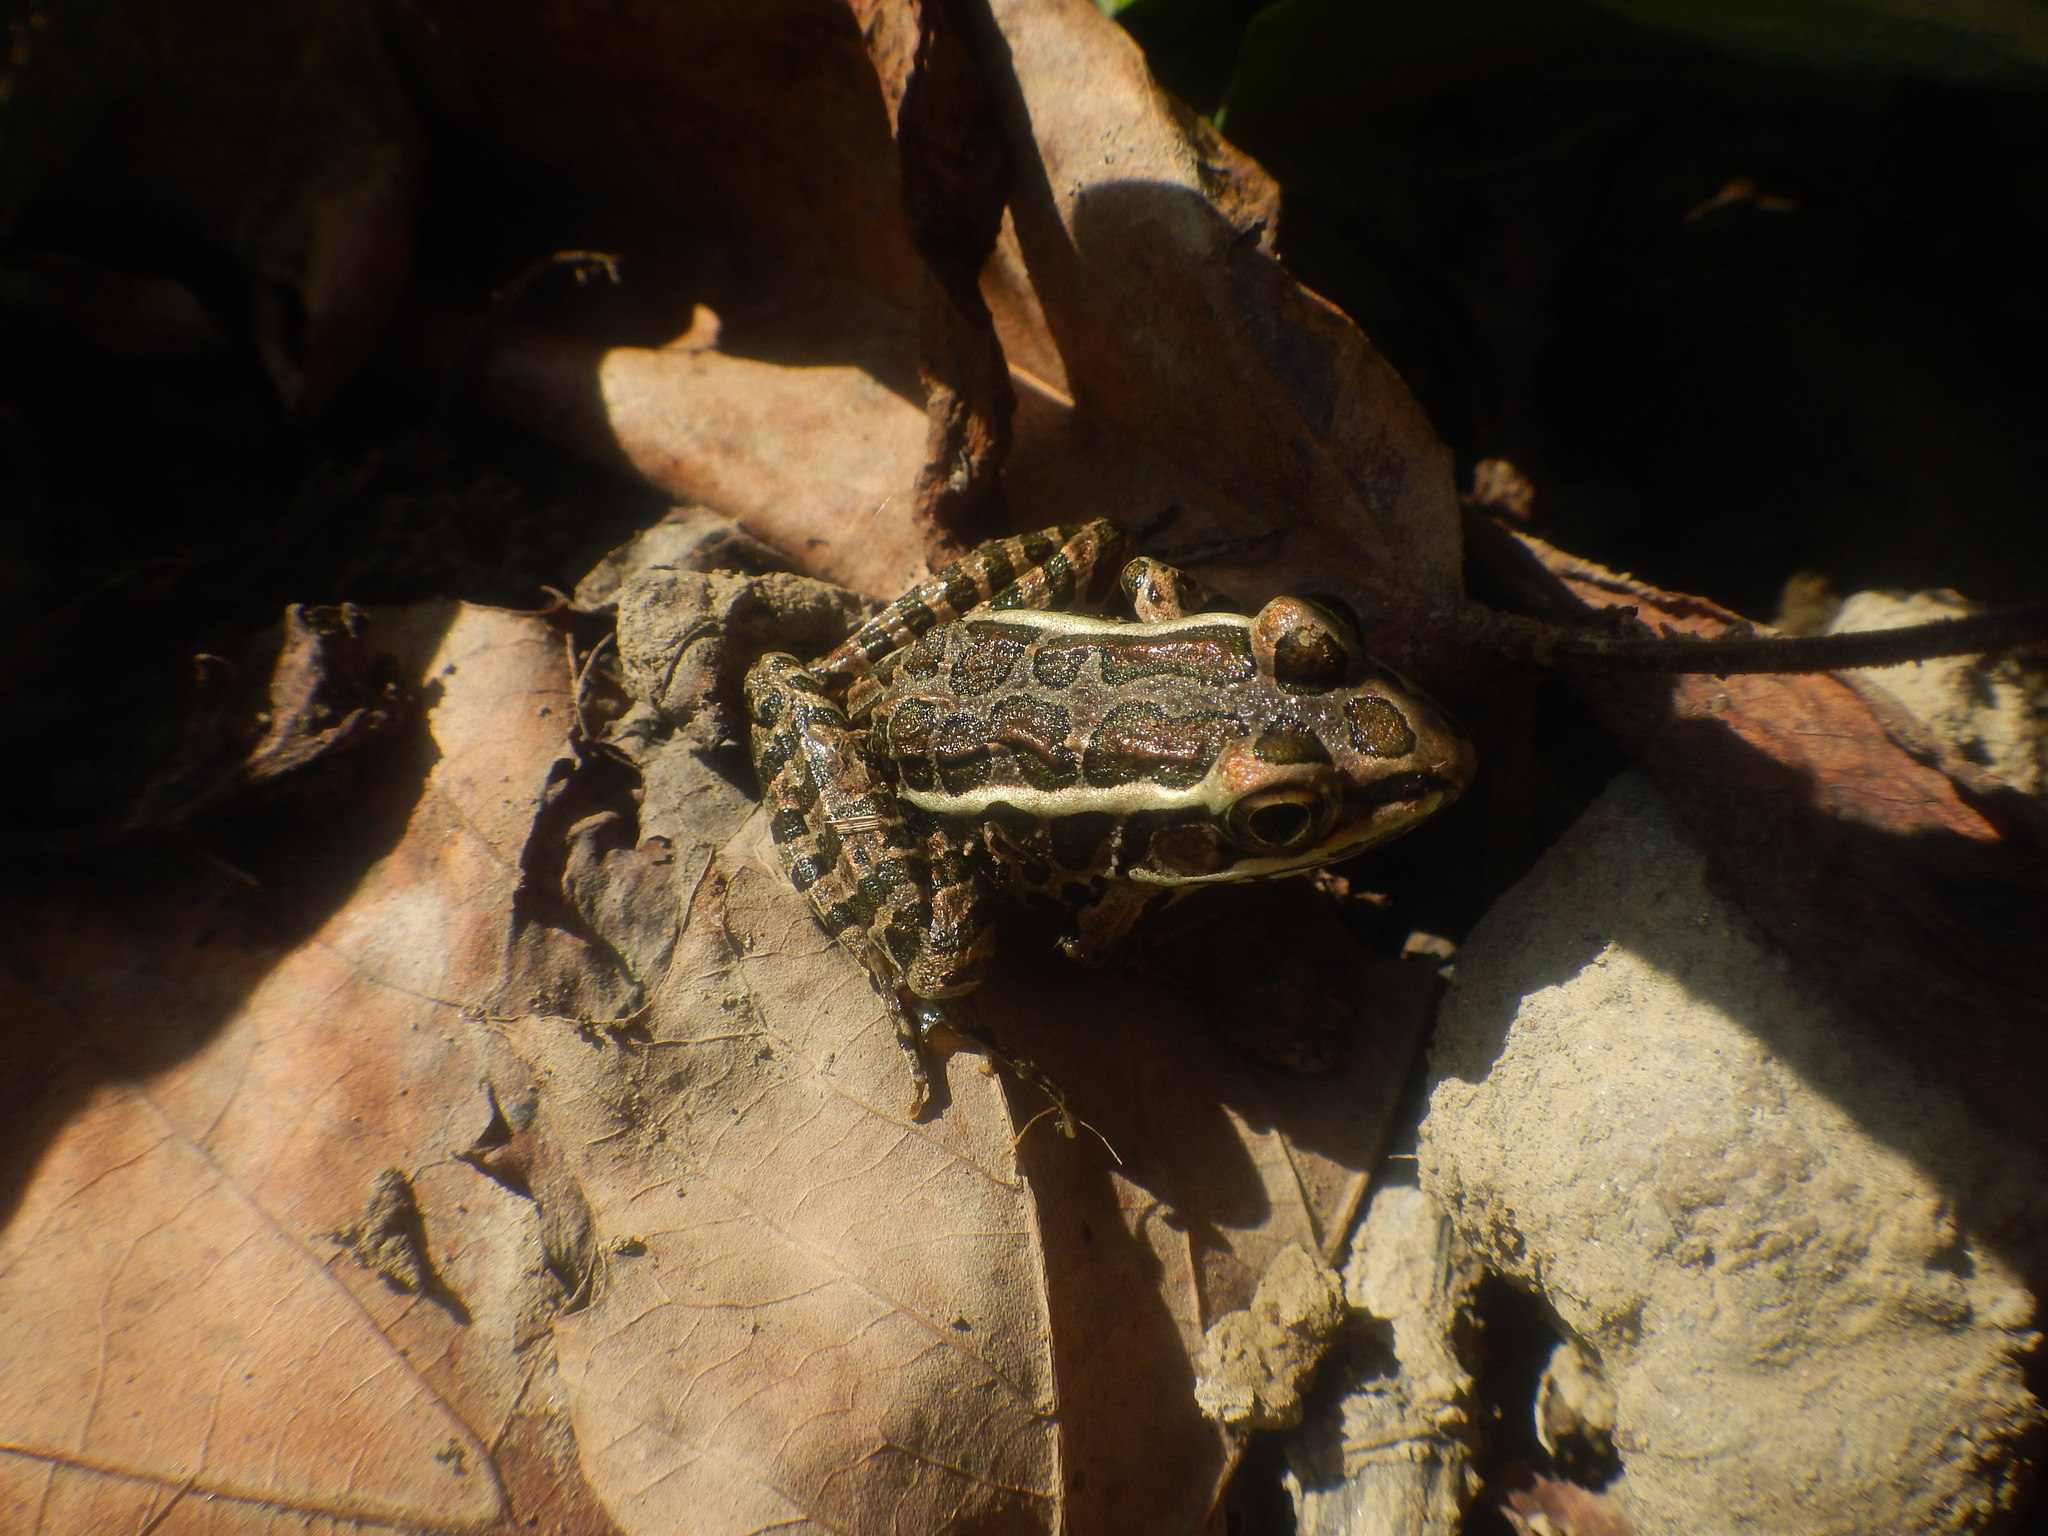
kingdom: Animalia
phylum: Chordata
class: Amphibia
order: Anura
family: Ranidae
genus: Lithobates
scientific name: Lithobates pipiens
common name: Northern leopard frog
